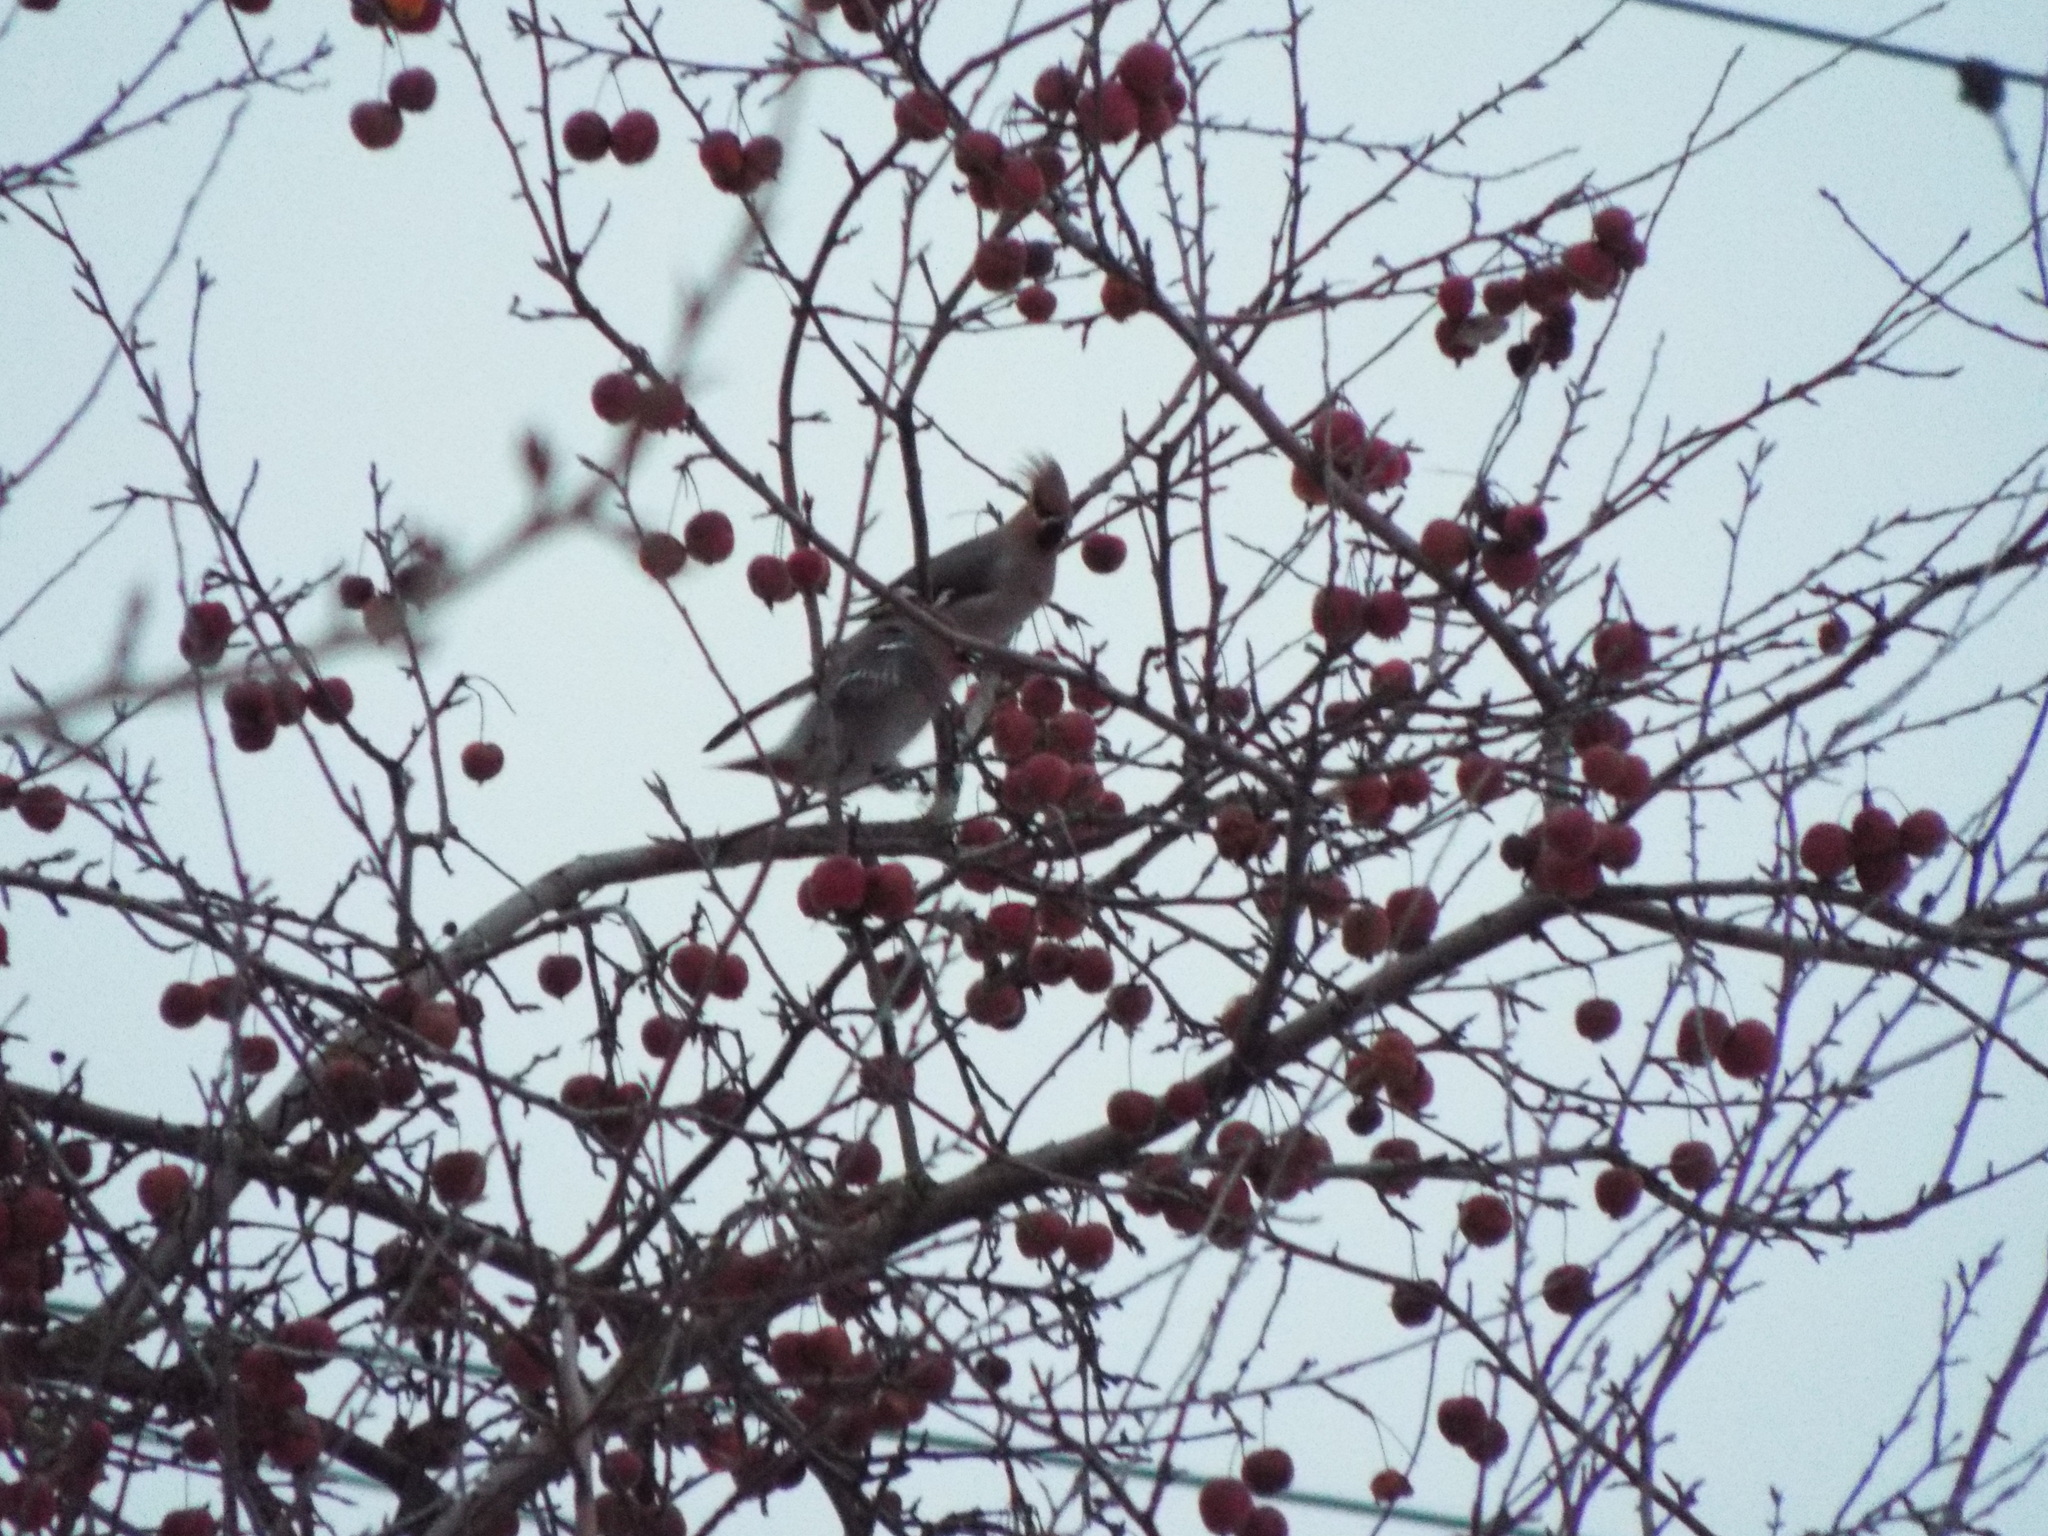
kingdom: Animalia
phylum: Chordata
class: Aves
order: Passeriformes
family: Bombycillidae
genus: Bombycilla
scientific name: Bombycilla garrulus
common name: Bohemian waxwing
